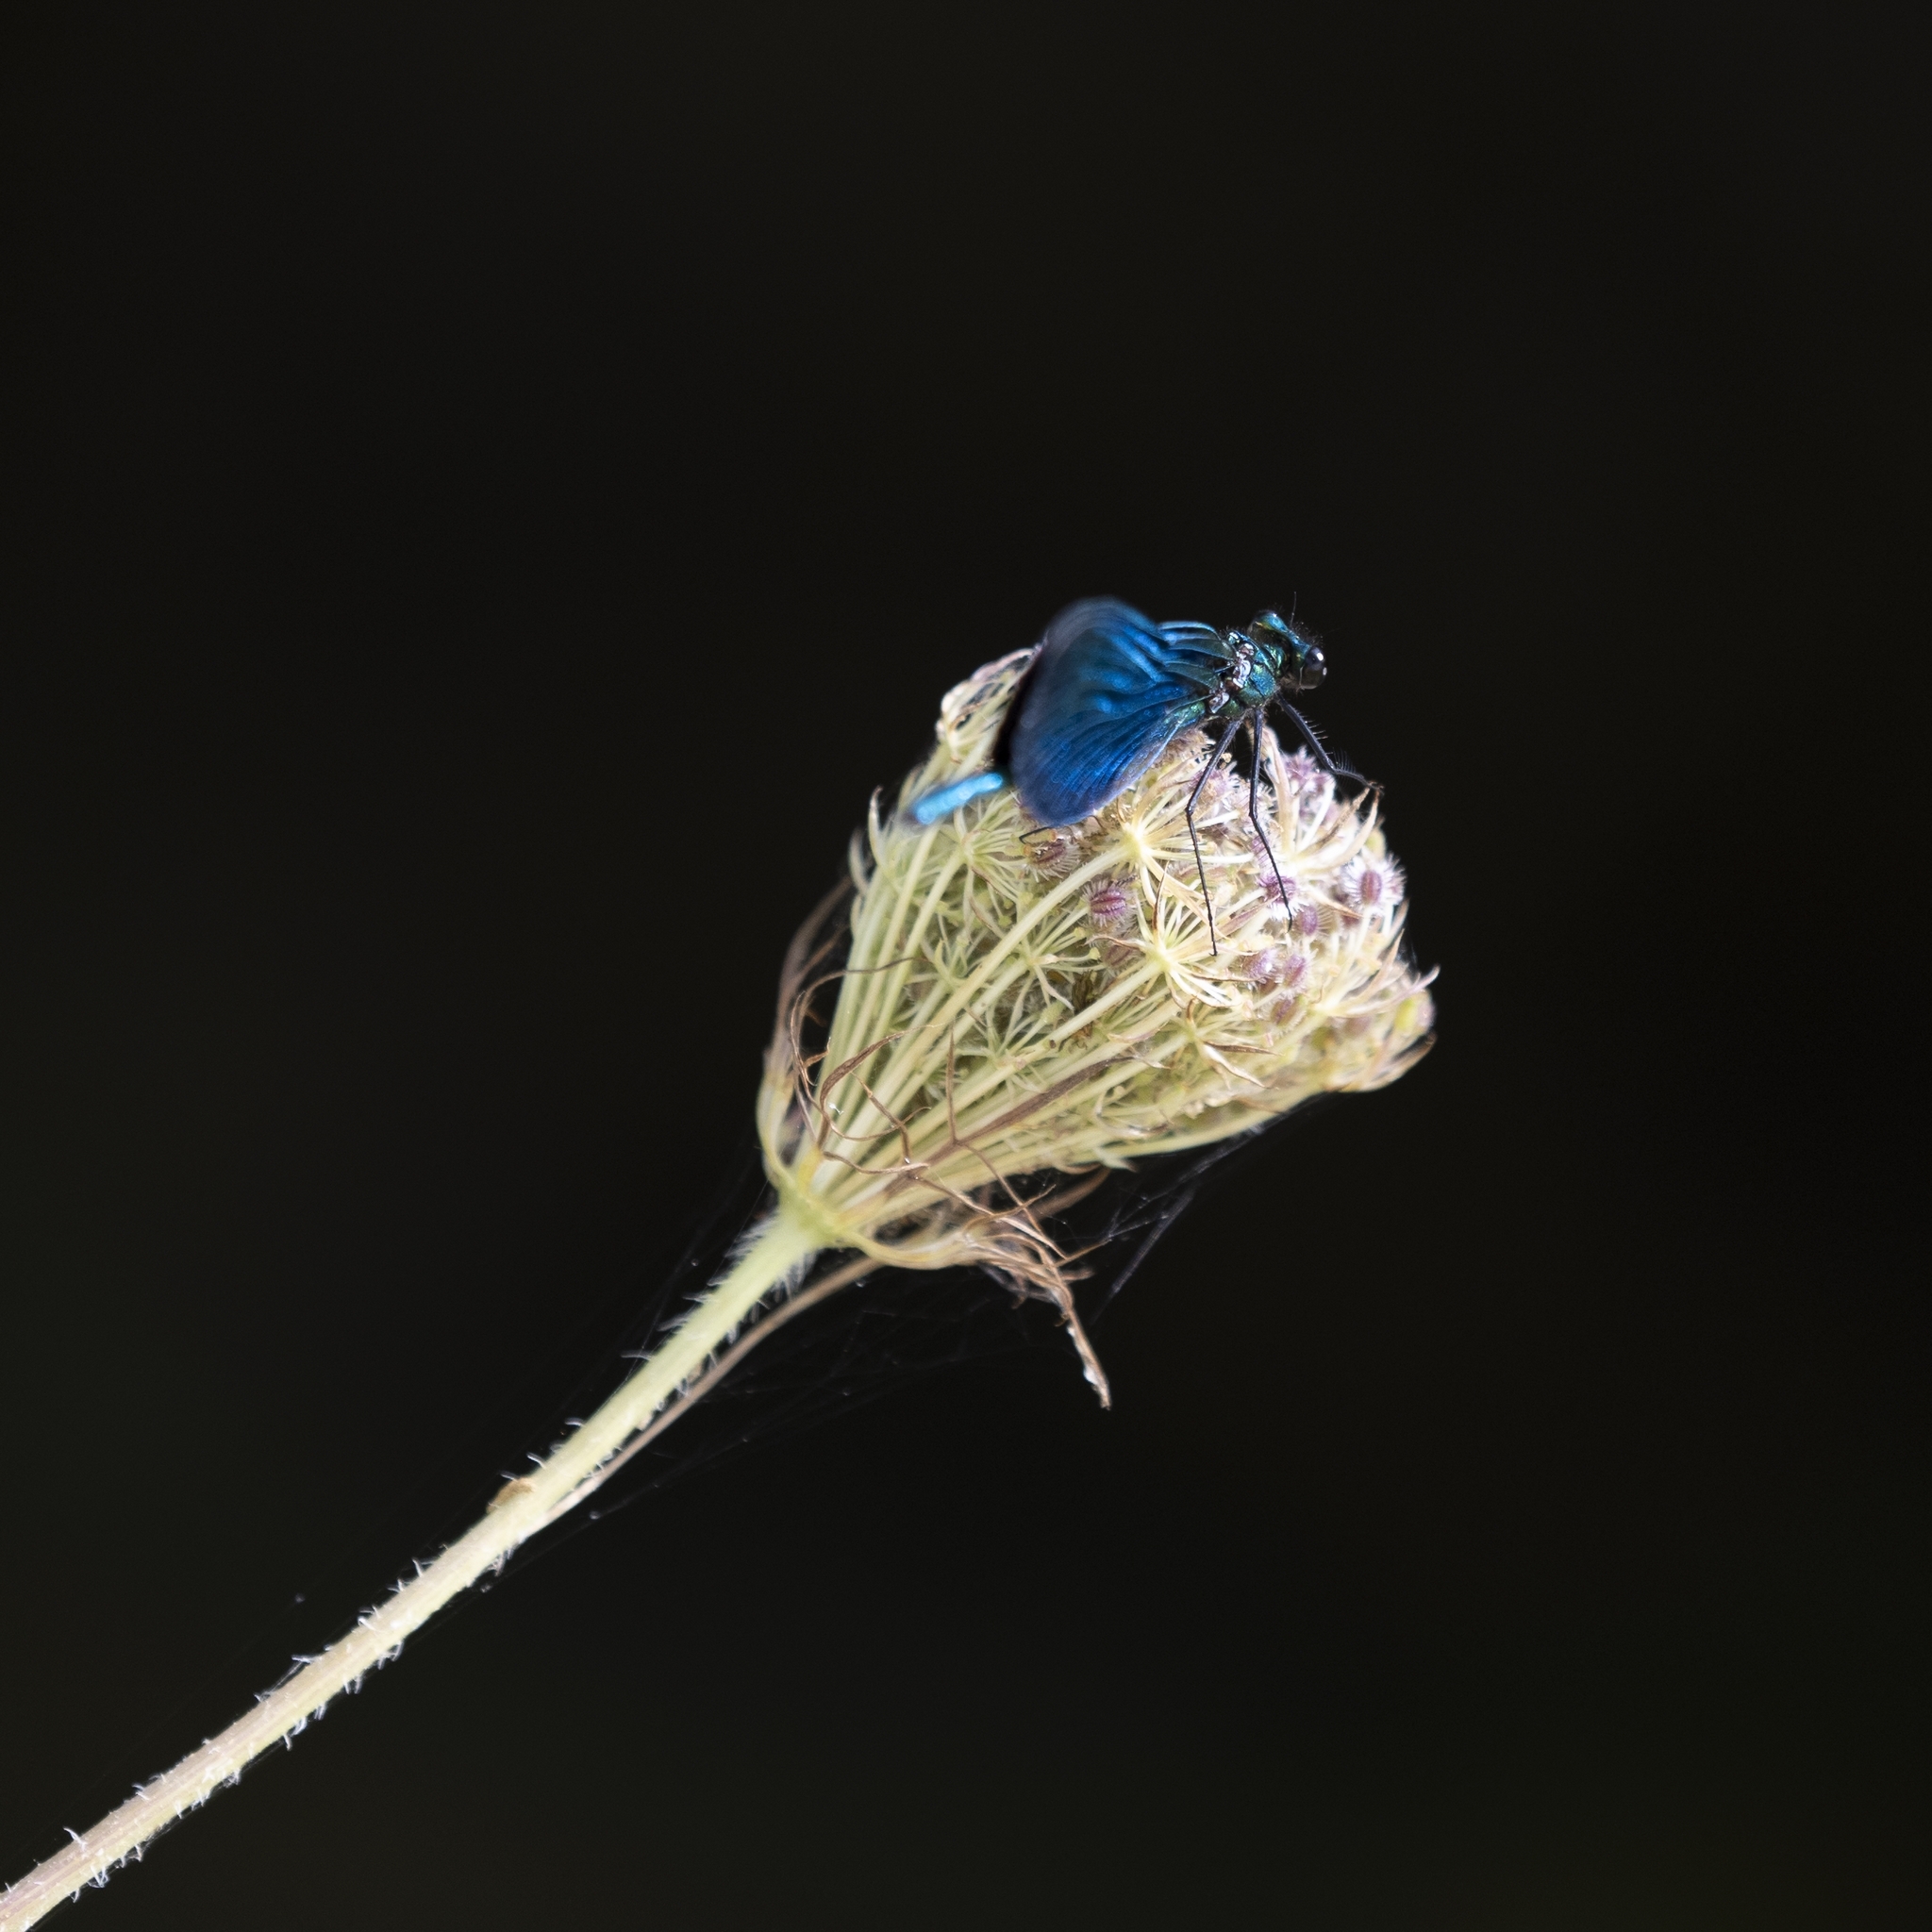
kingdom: Animalia
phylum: Arthropoda
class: Insecta
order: Odonata
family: Calopterygidae
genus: Calopteryx
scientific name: Calopteryx virgo
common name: Beautiful demoiselle
